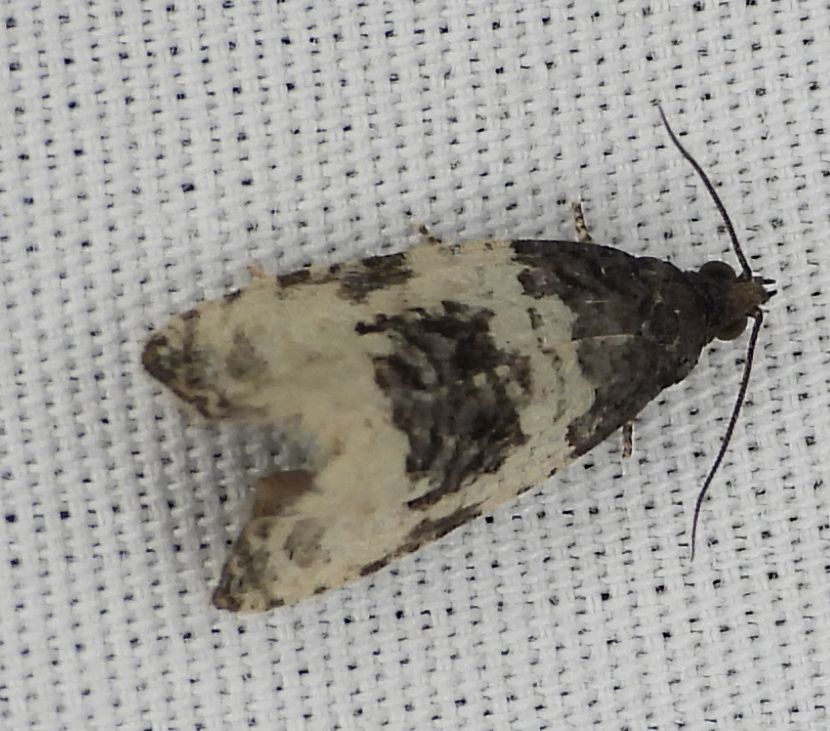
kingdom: Animalia
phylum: Arthropoda
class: Insecta
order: Lepidoptera
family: Tortricidae
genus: Olethreutes
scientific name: Olethreutes bipartitana
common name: Divided olethreutes moth
